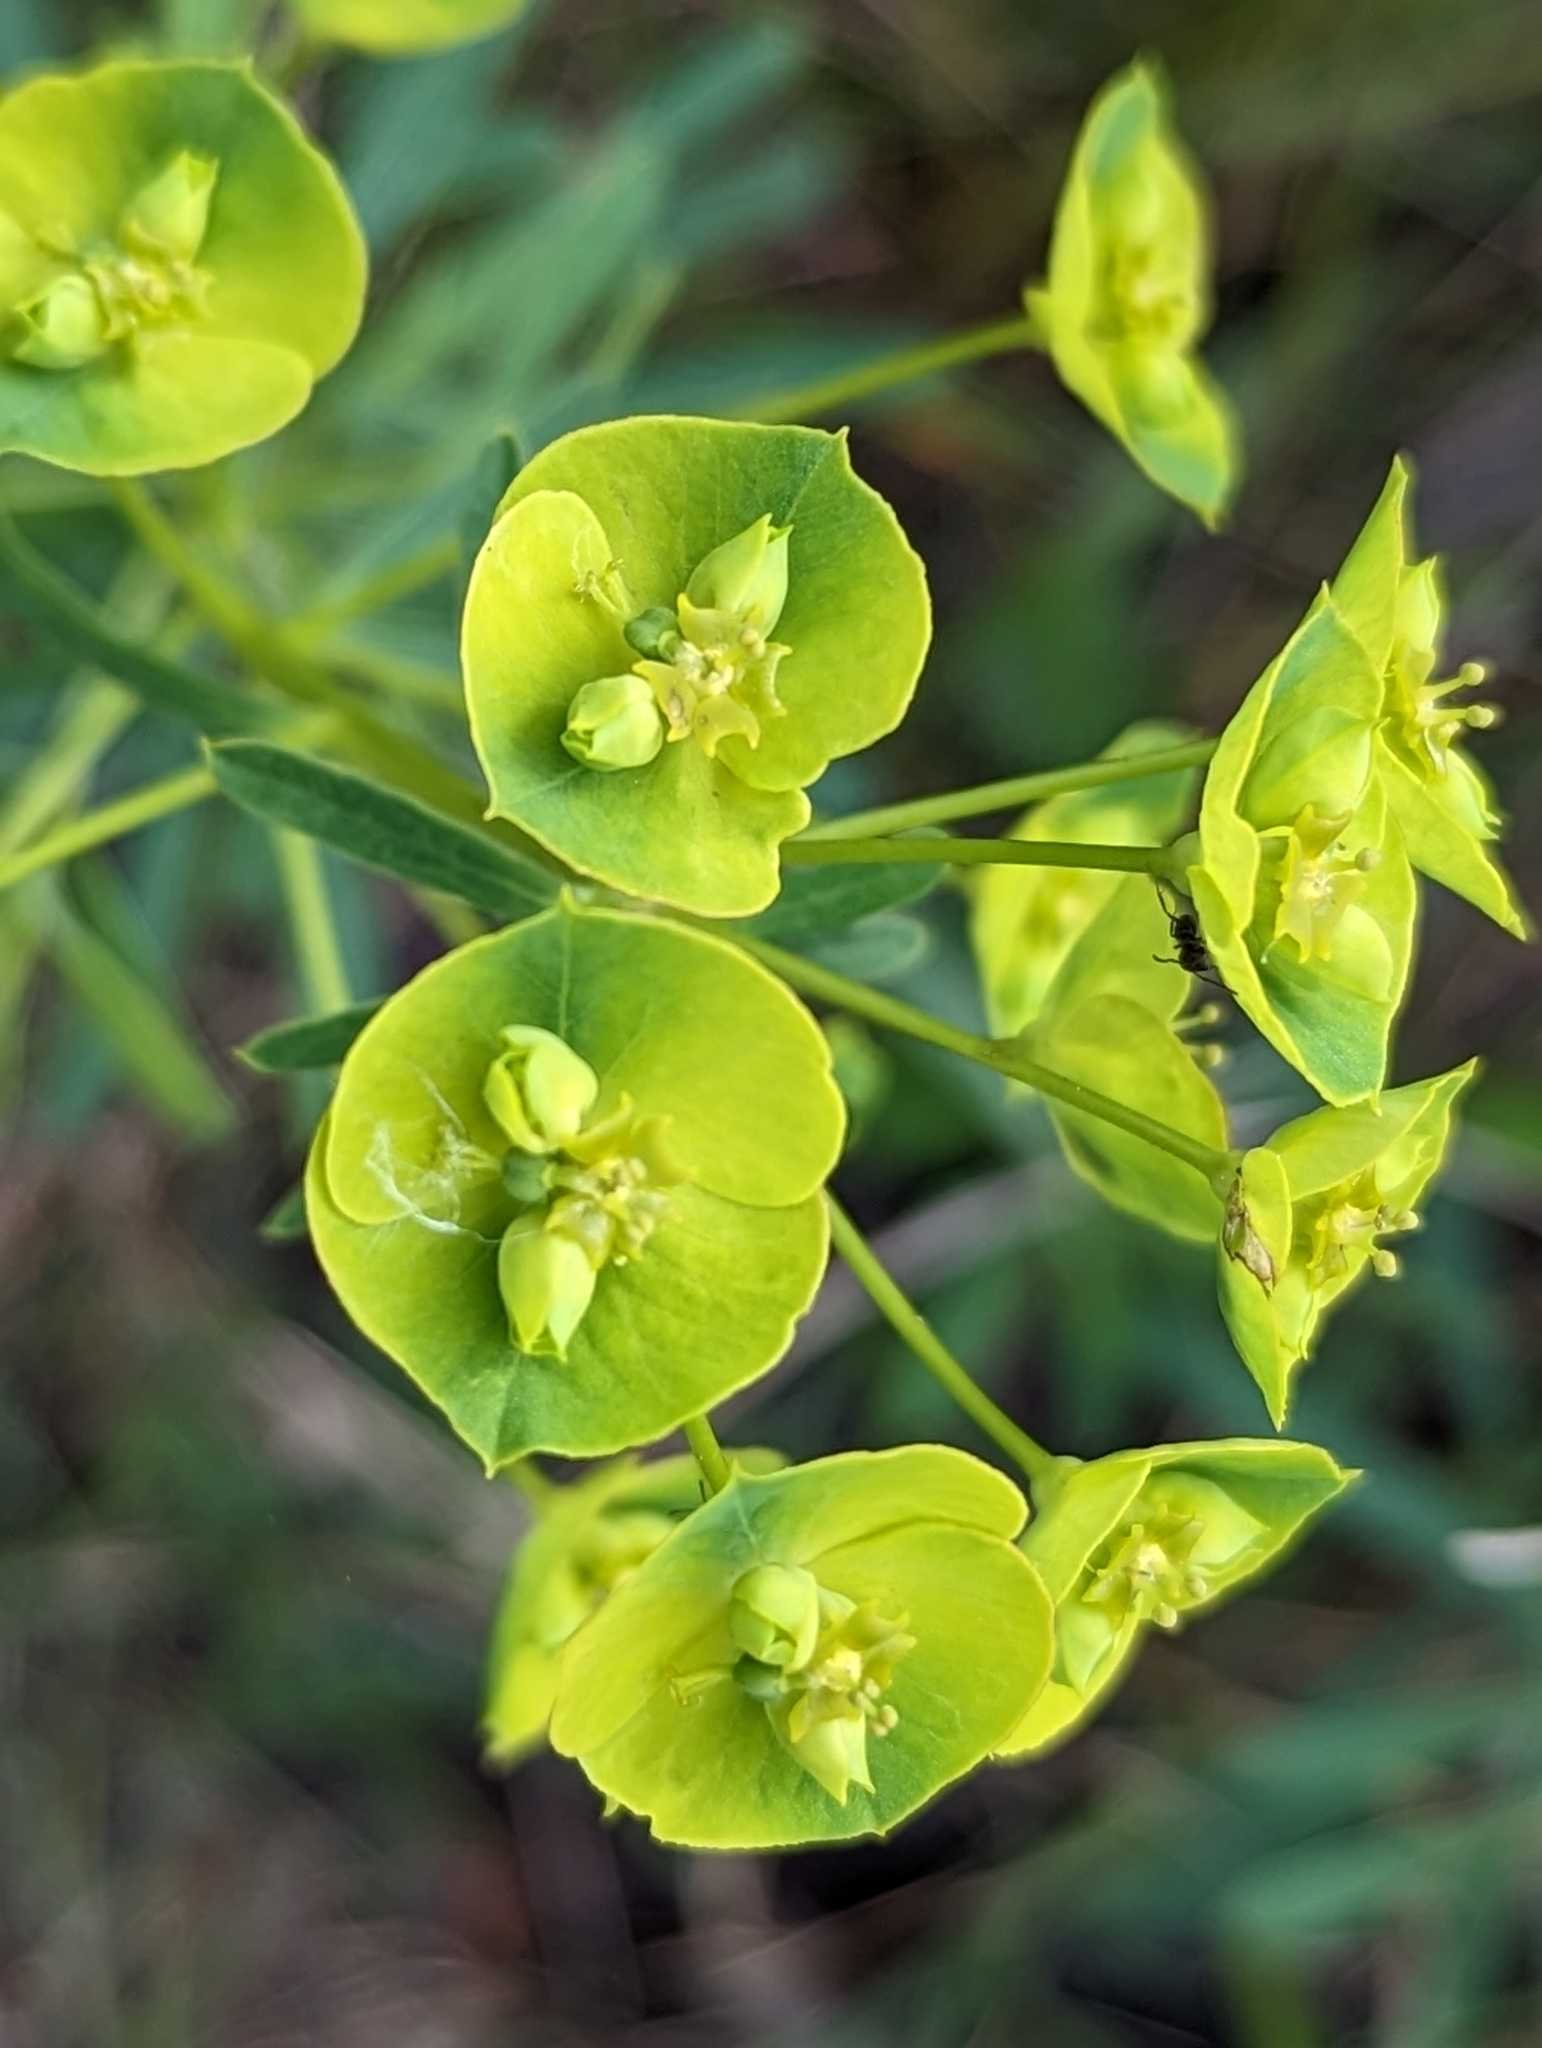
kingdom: Plantae
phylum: Tracheophyta
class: Magnoliopsida
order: Malpighiales
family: Euphorbiaceae
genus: Euphorbia
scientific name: Euphorbia esula
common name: Leafy spurge
